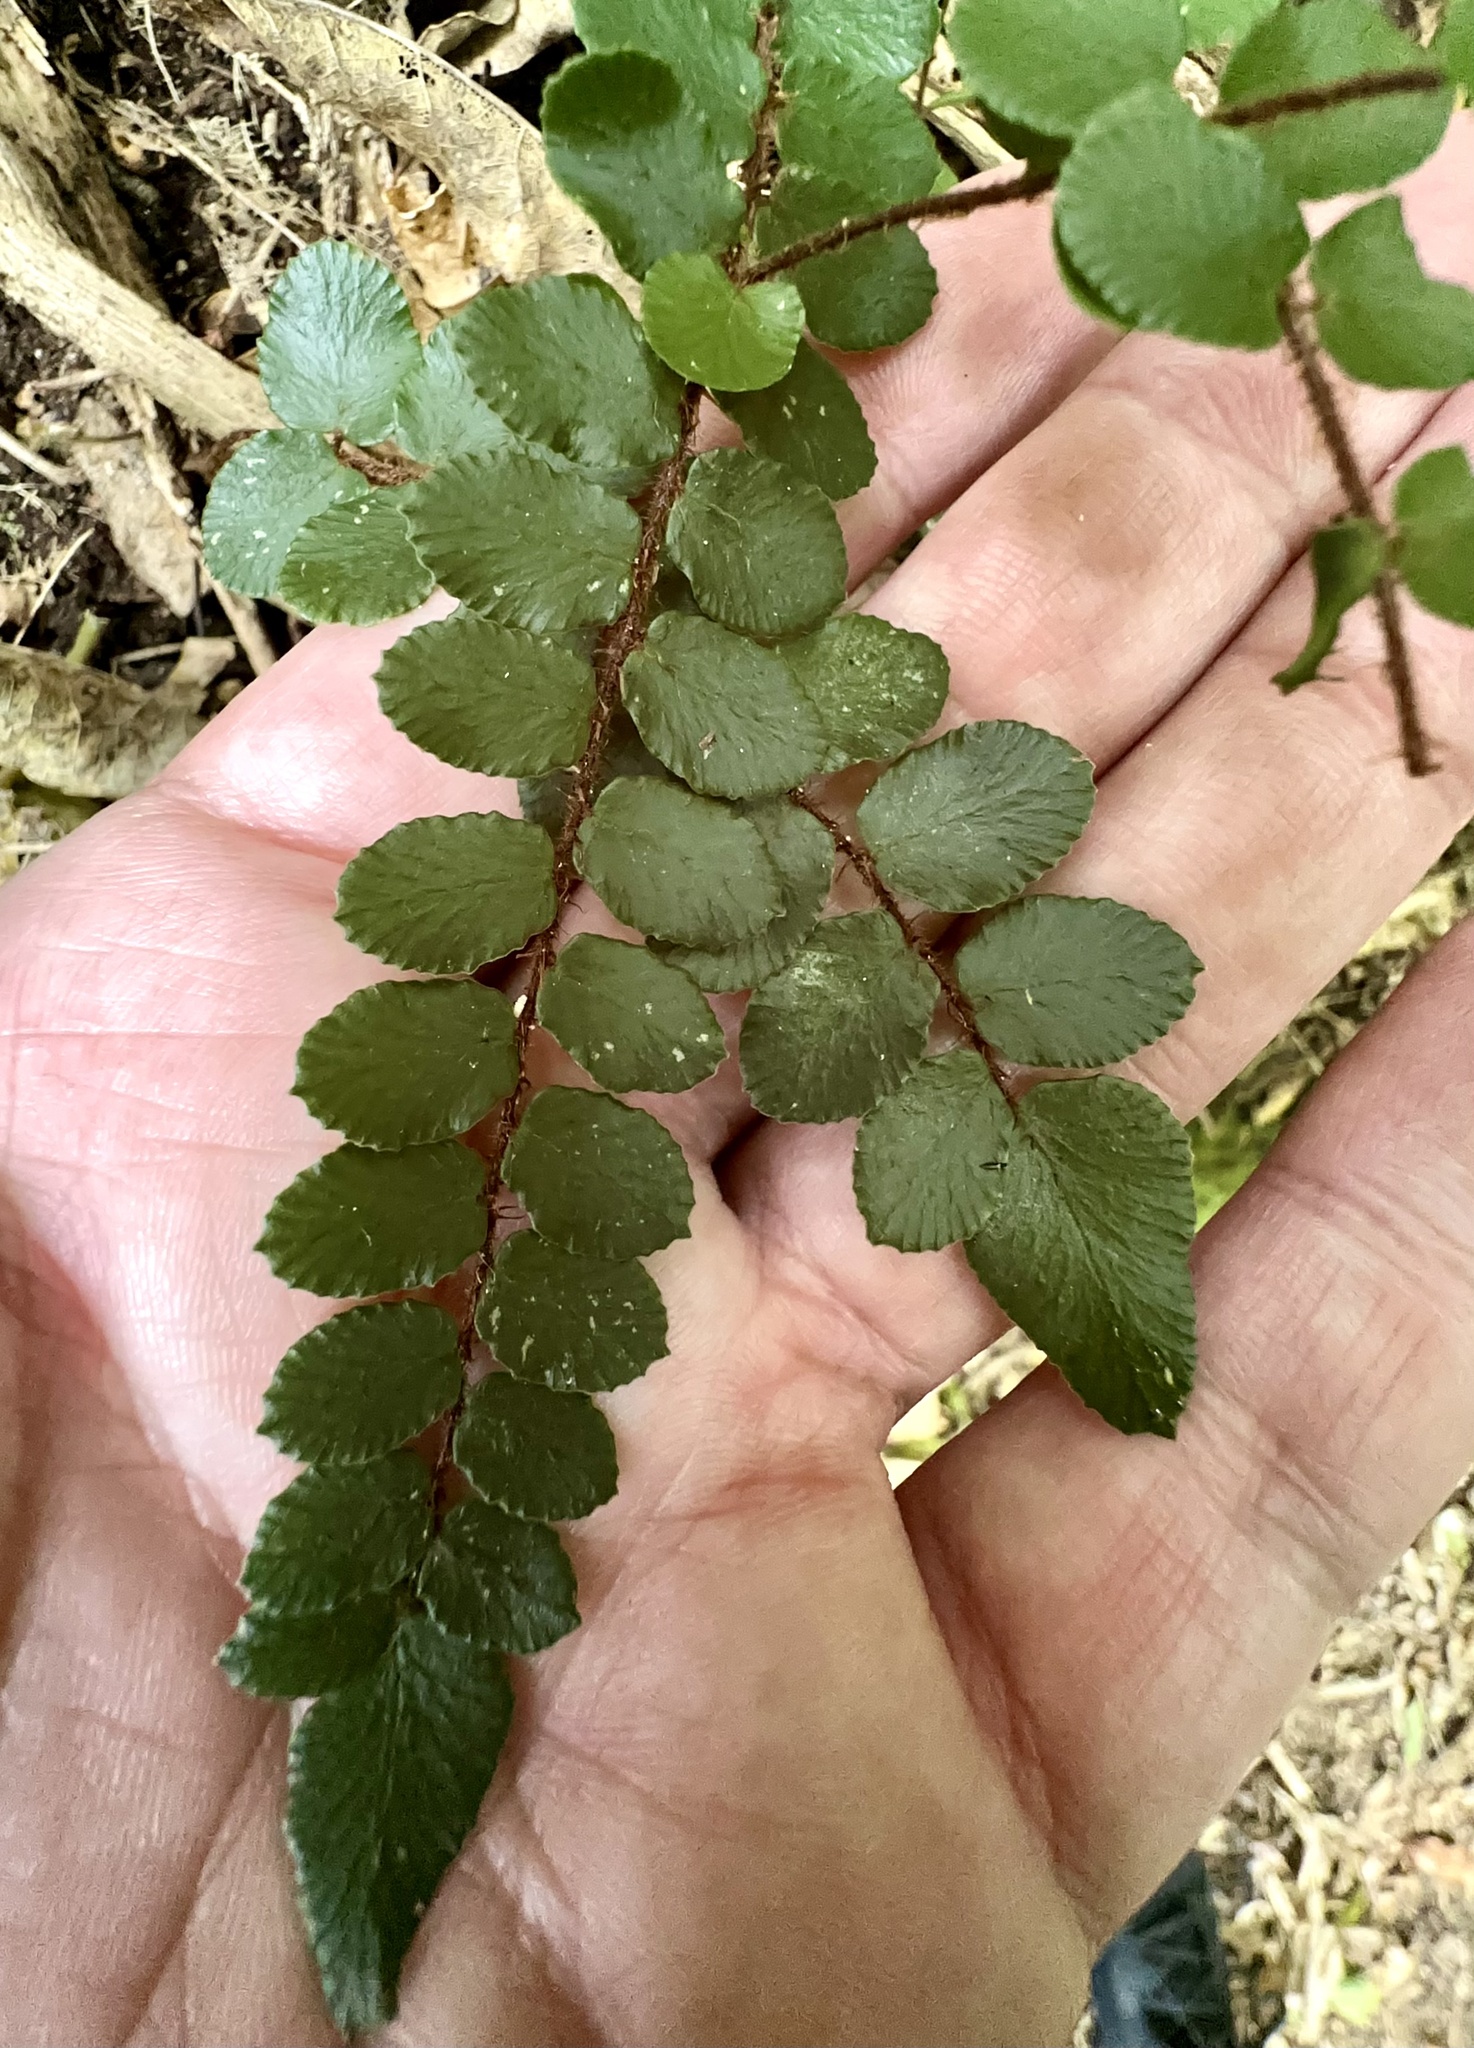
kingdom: Plantae
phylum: Tracheophyta
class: Polypodiopsida
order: Polypodiales
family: Pteridaceae
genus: Pellaea
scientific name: Pellaea rotundifolia
